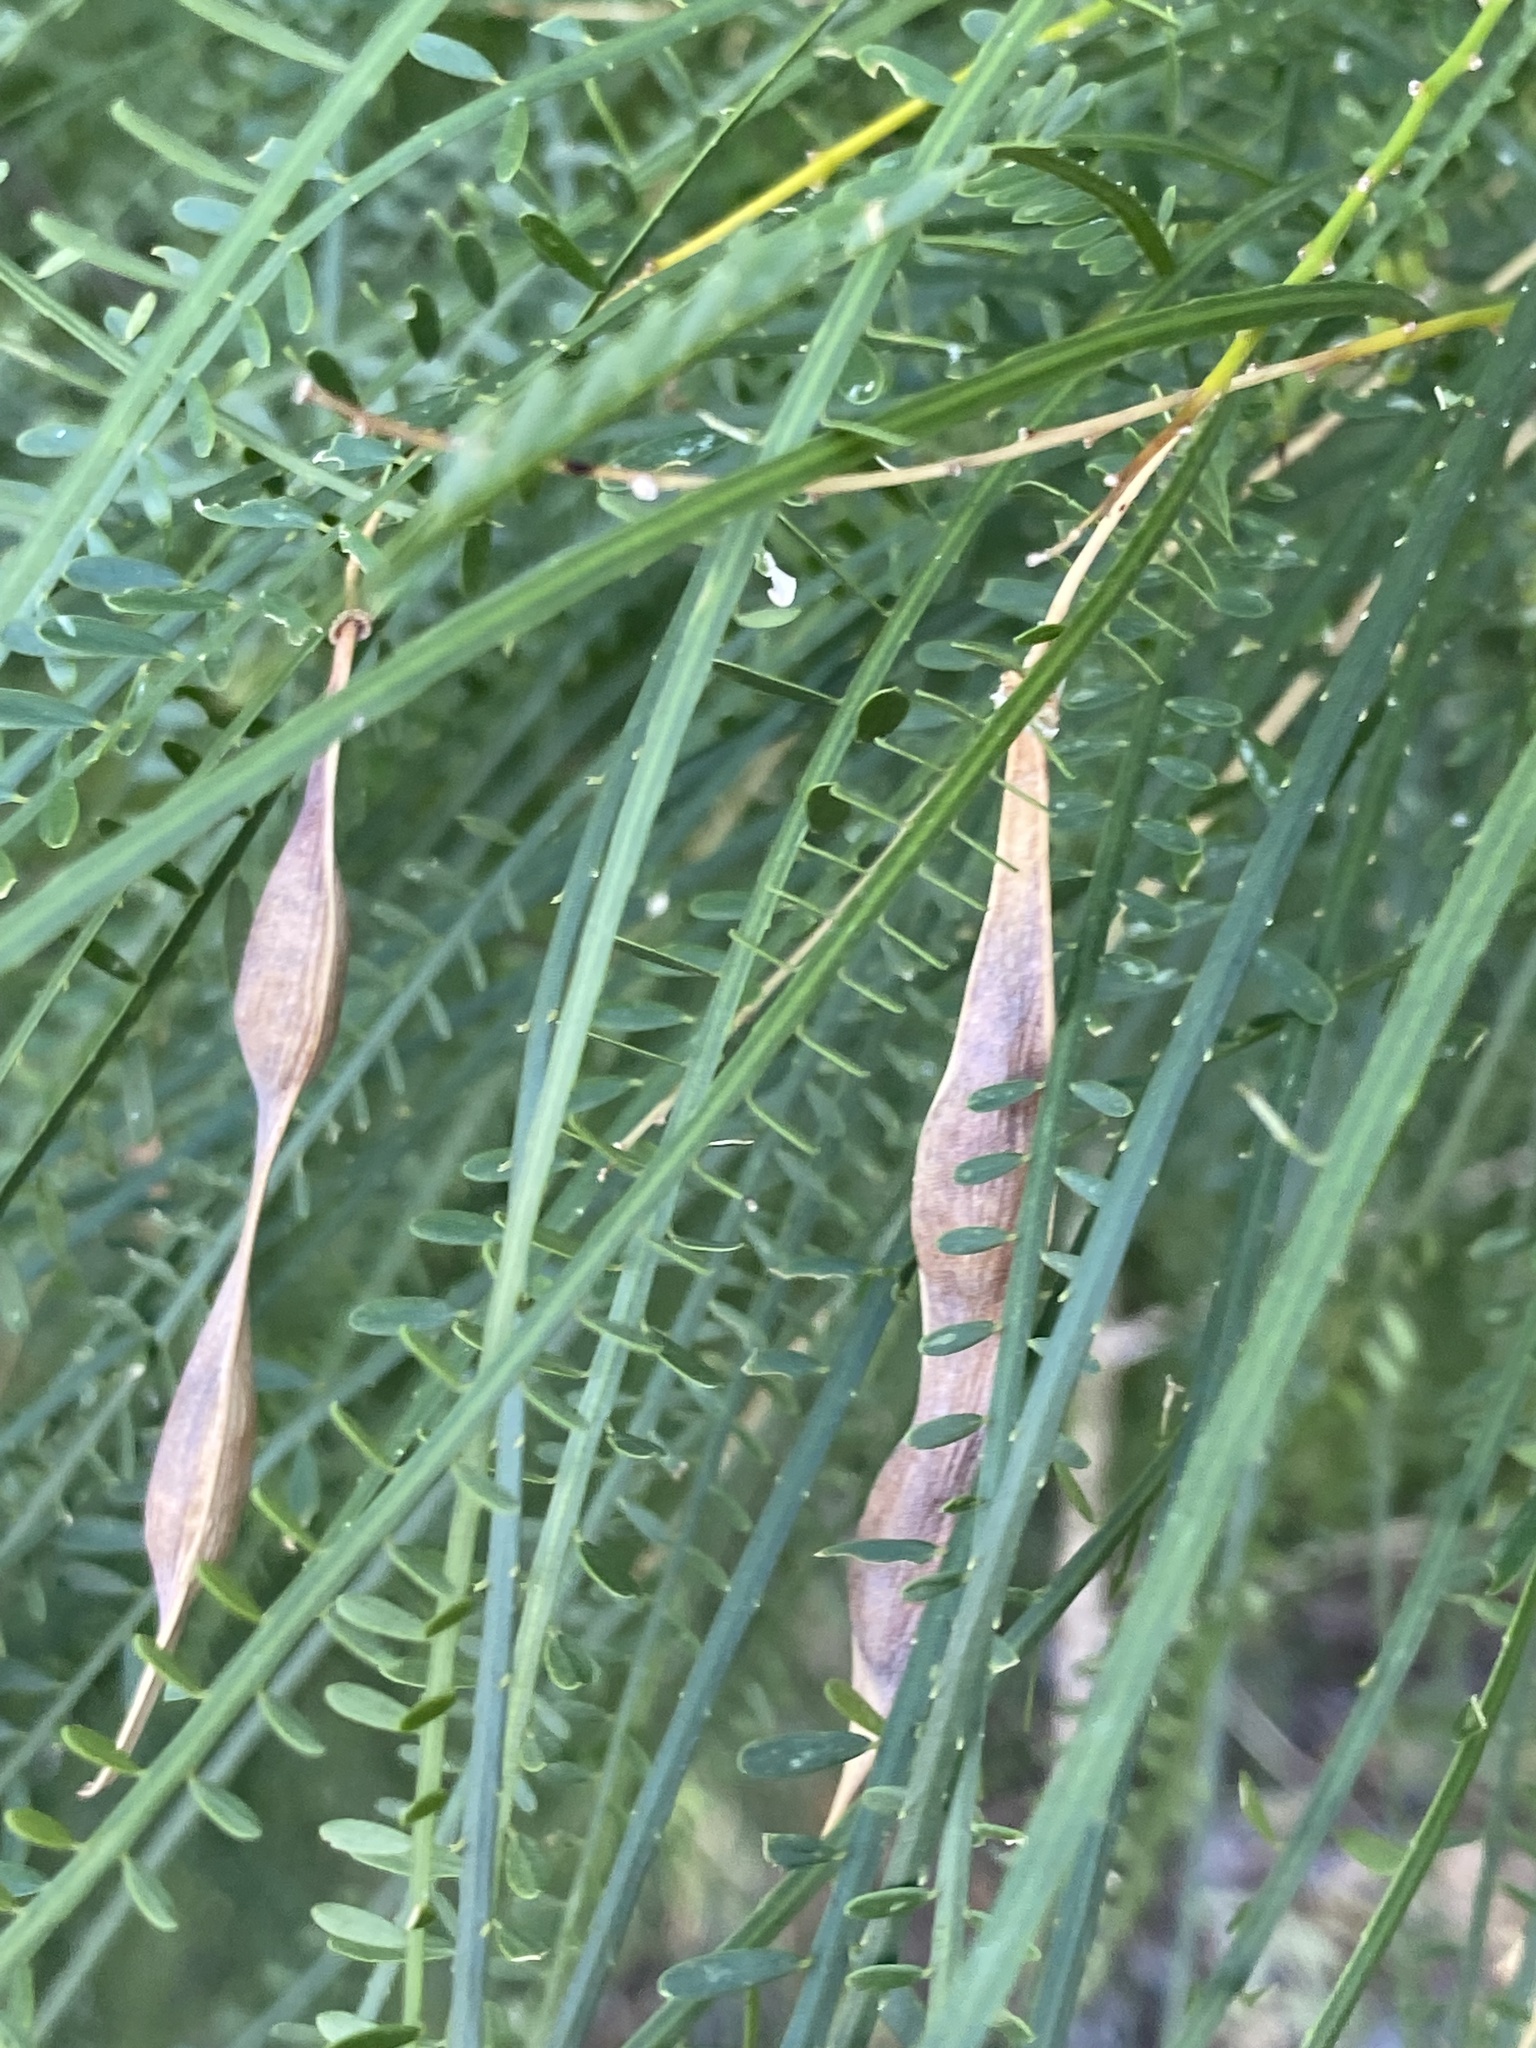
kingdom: Plantae
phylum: Tracheophyta
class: Magnoliopsida
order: Fabales
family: Fabaceae
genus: Parkinsonia
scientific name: Parkinsonia aculeata
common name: Jerusalem thorn
